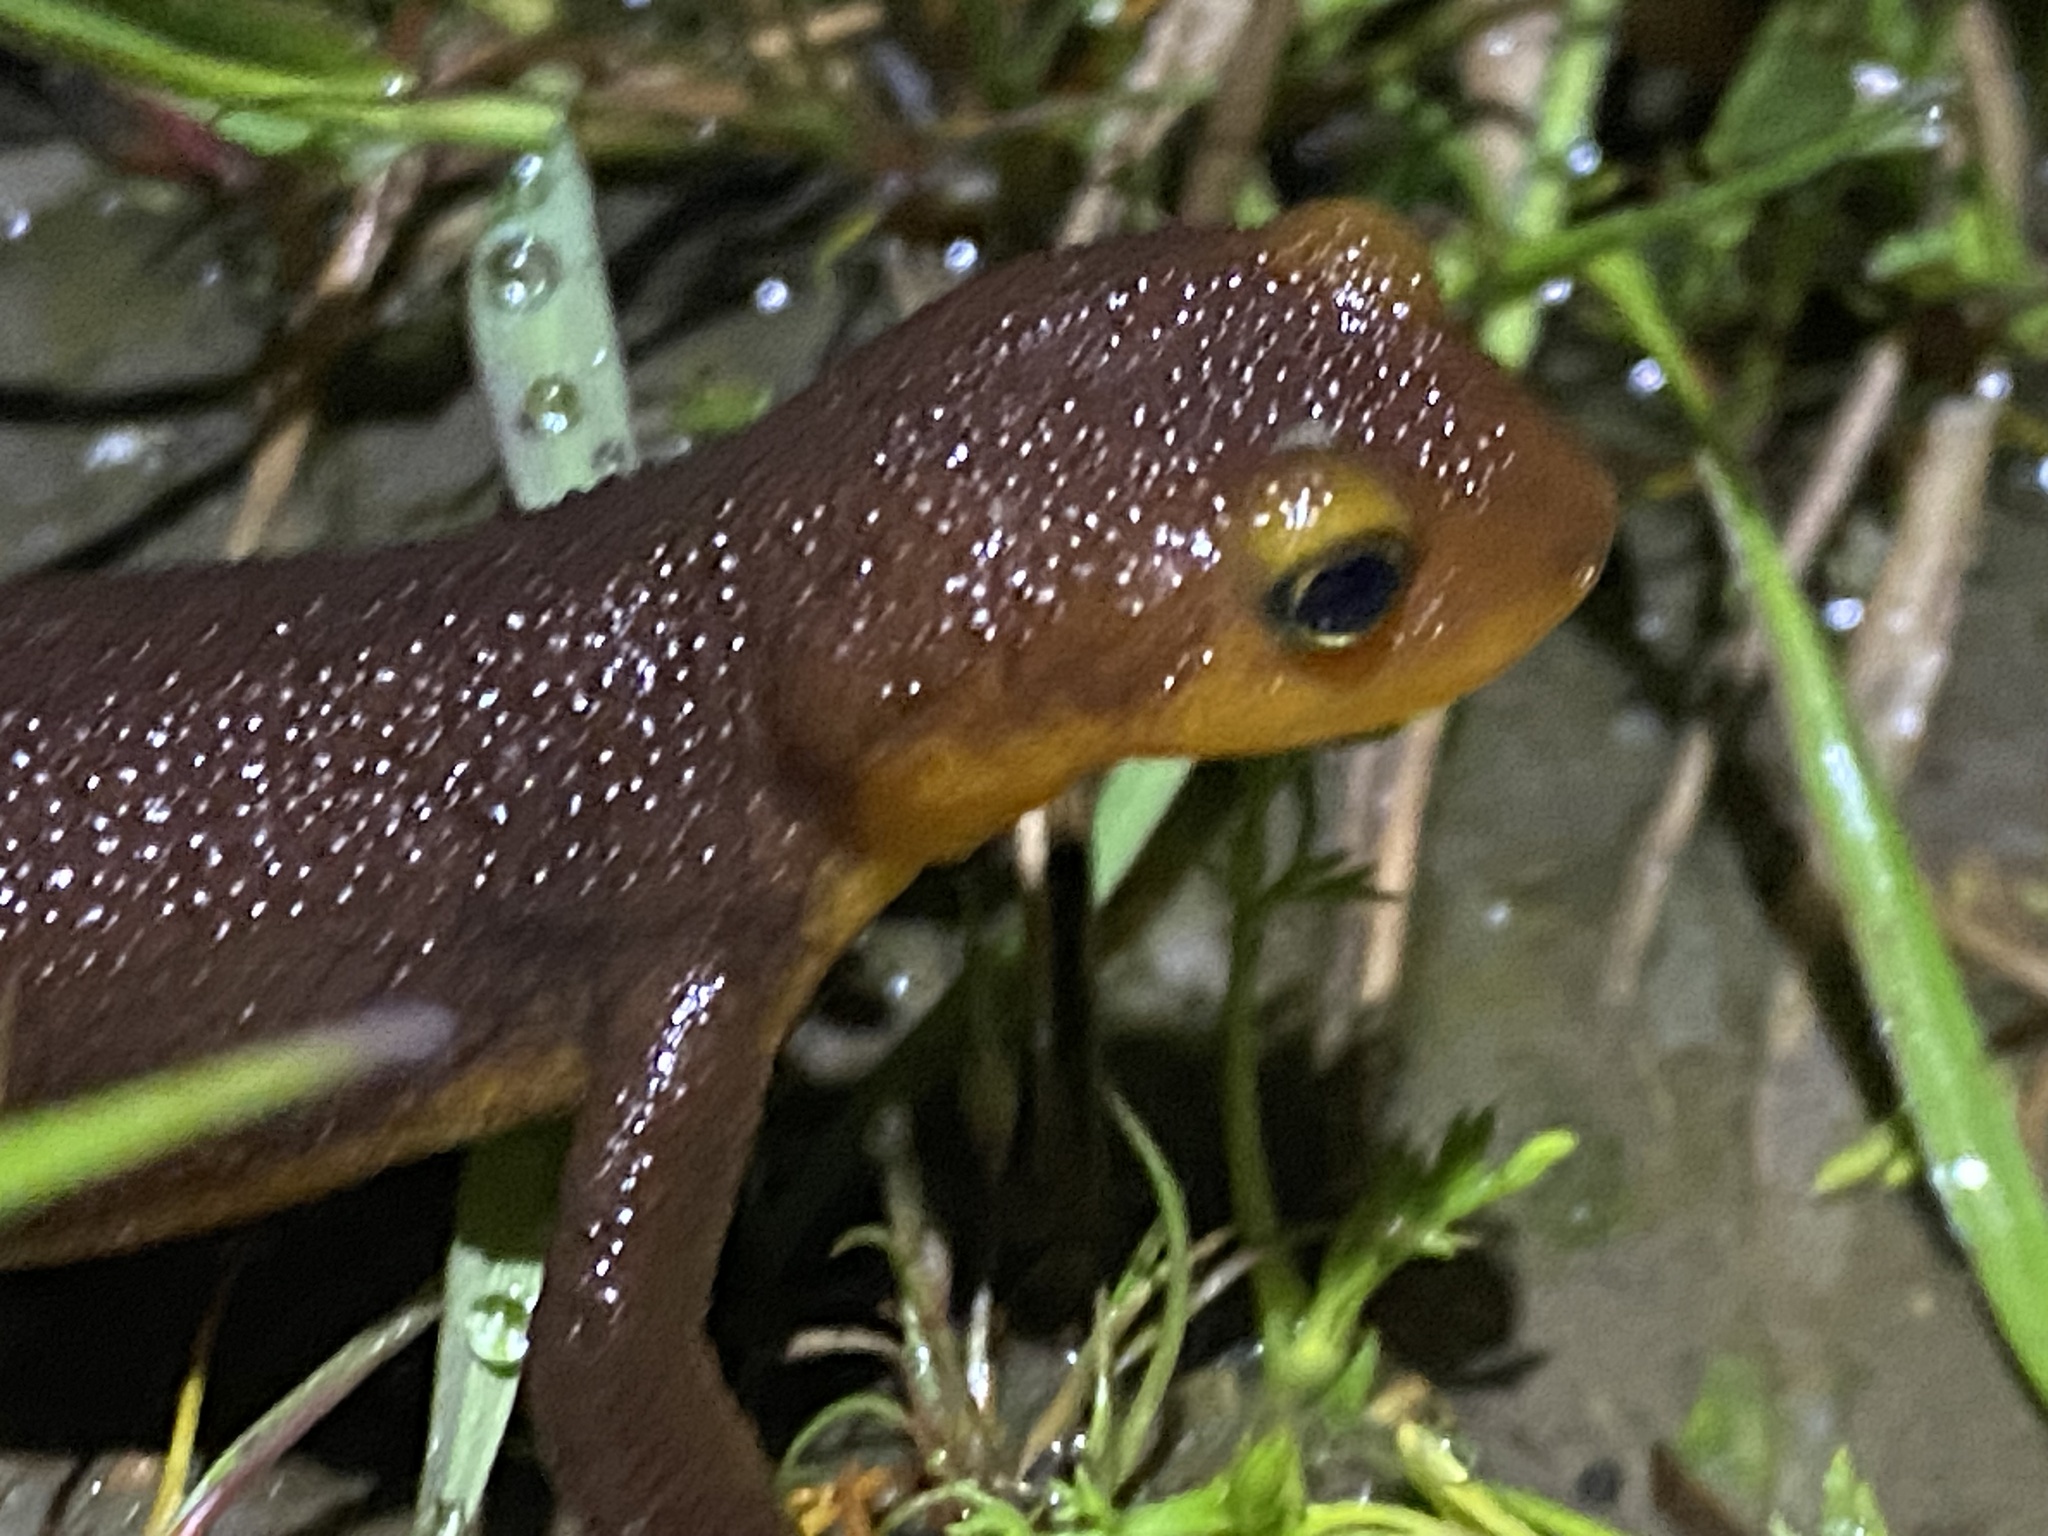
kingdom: Animalia
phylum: Chordata
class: Amphibia
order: Caudata
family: Salamandridae
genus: Taricha
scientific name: Taricha torosa
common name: California newt
